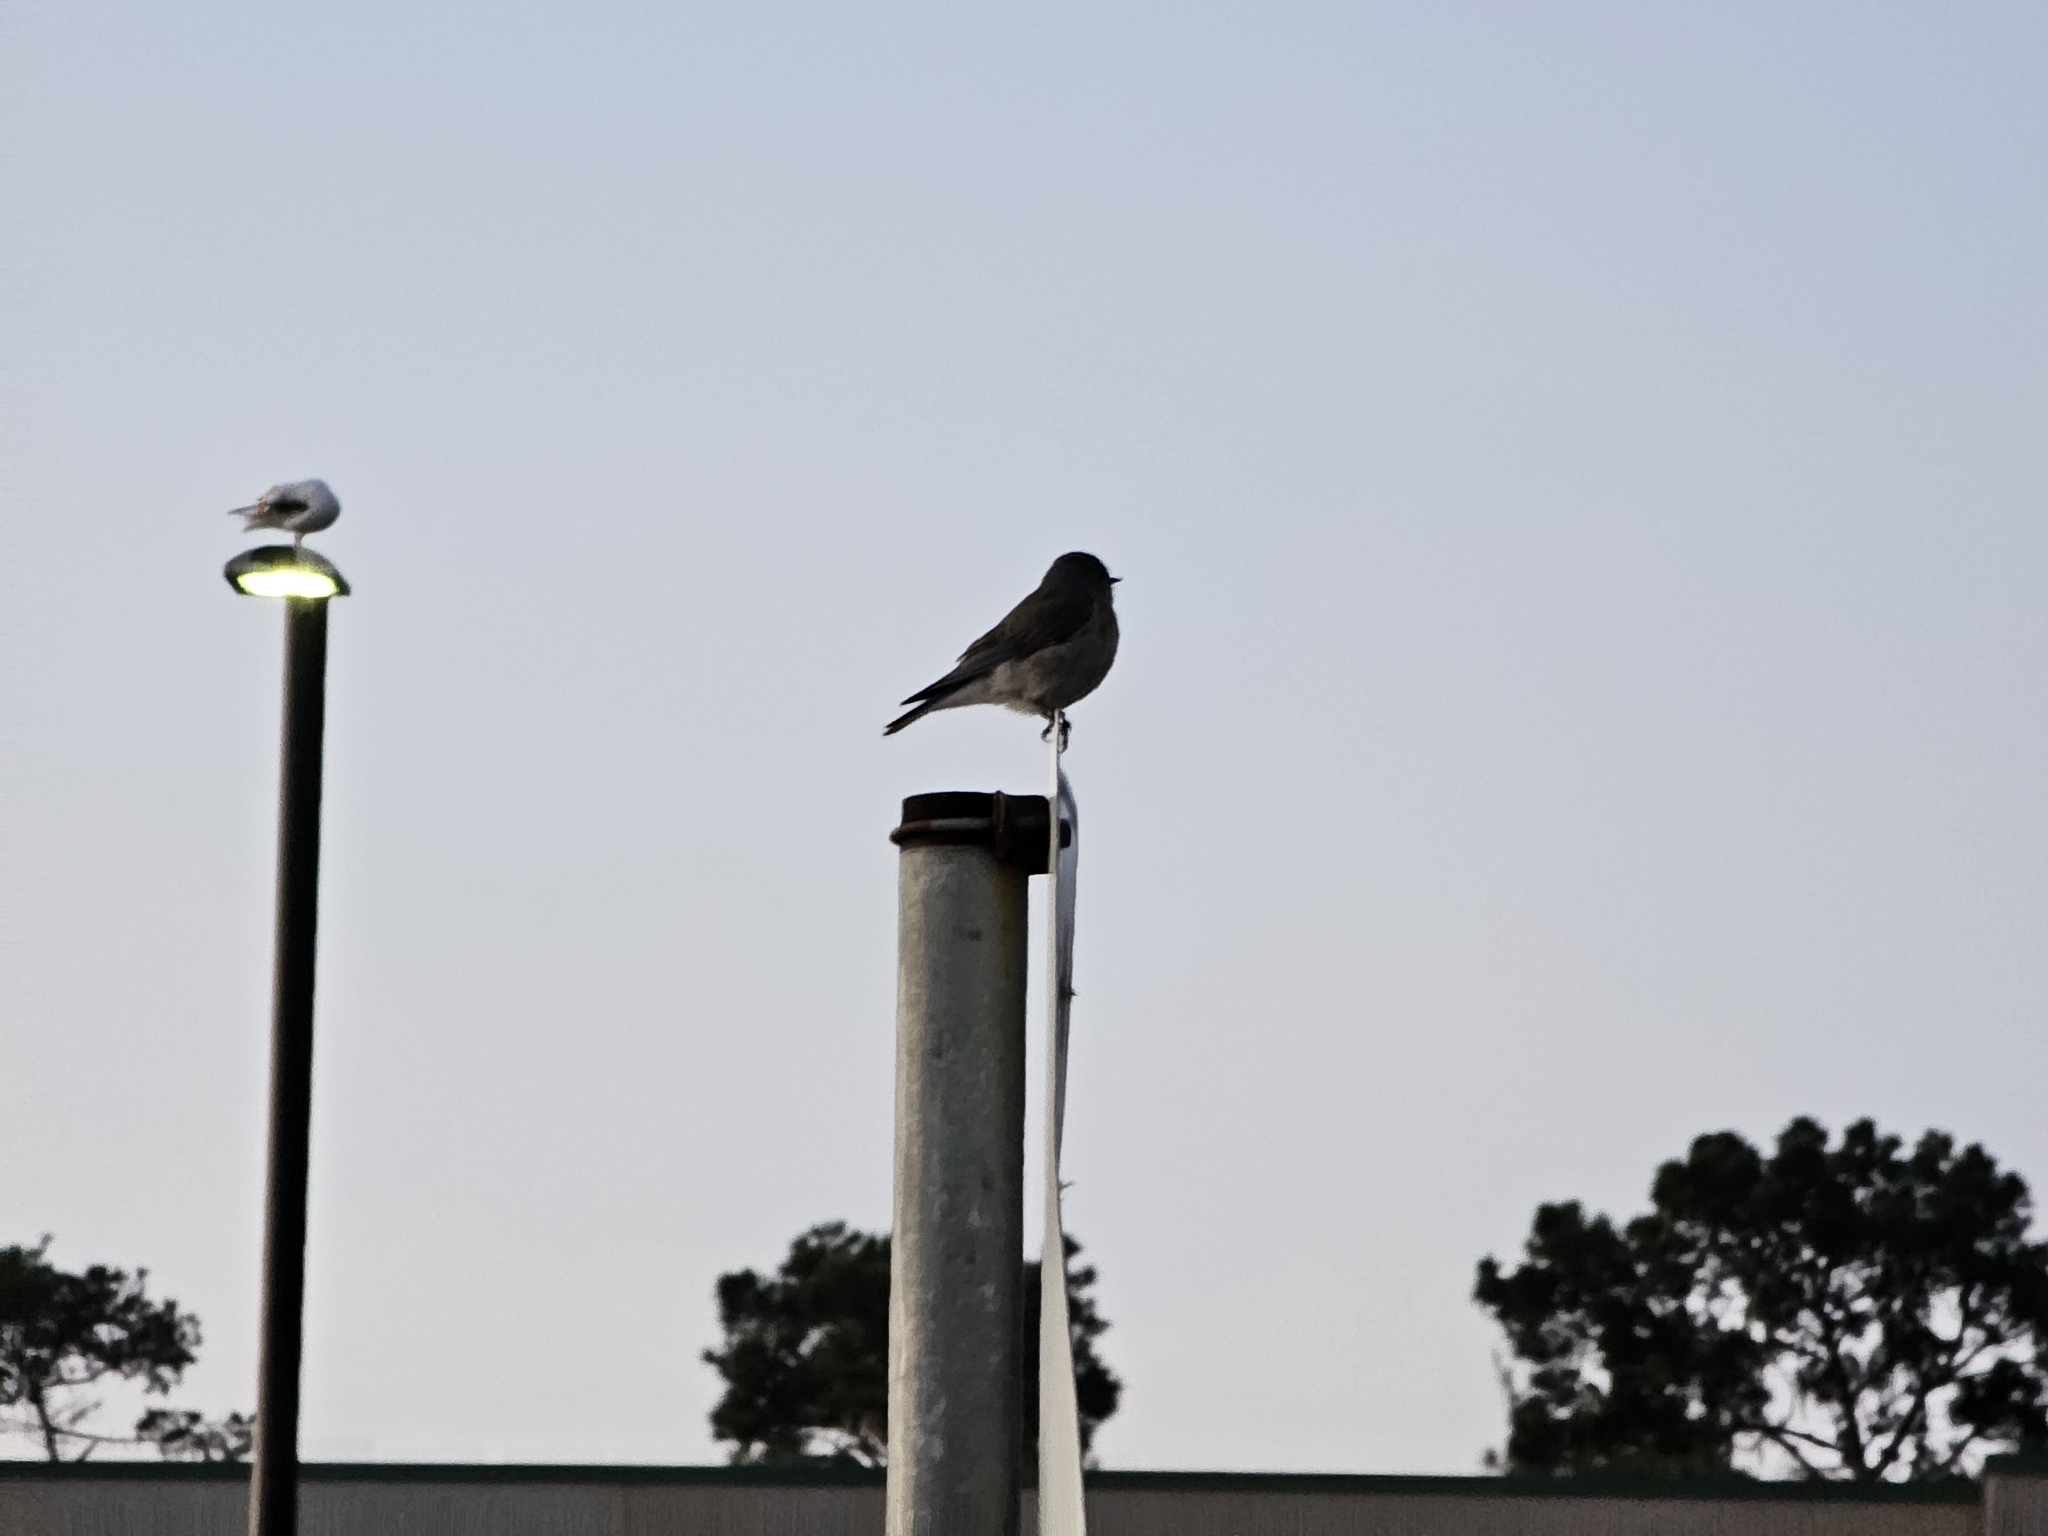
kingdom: Animalia
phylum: Chordata
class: Aves
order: Passeriformes
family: Turdidae
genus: Sialia
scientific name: Sialia mexicana
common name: Western bluebird
